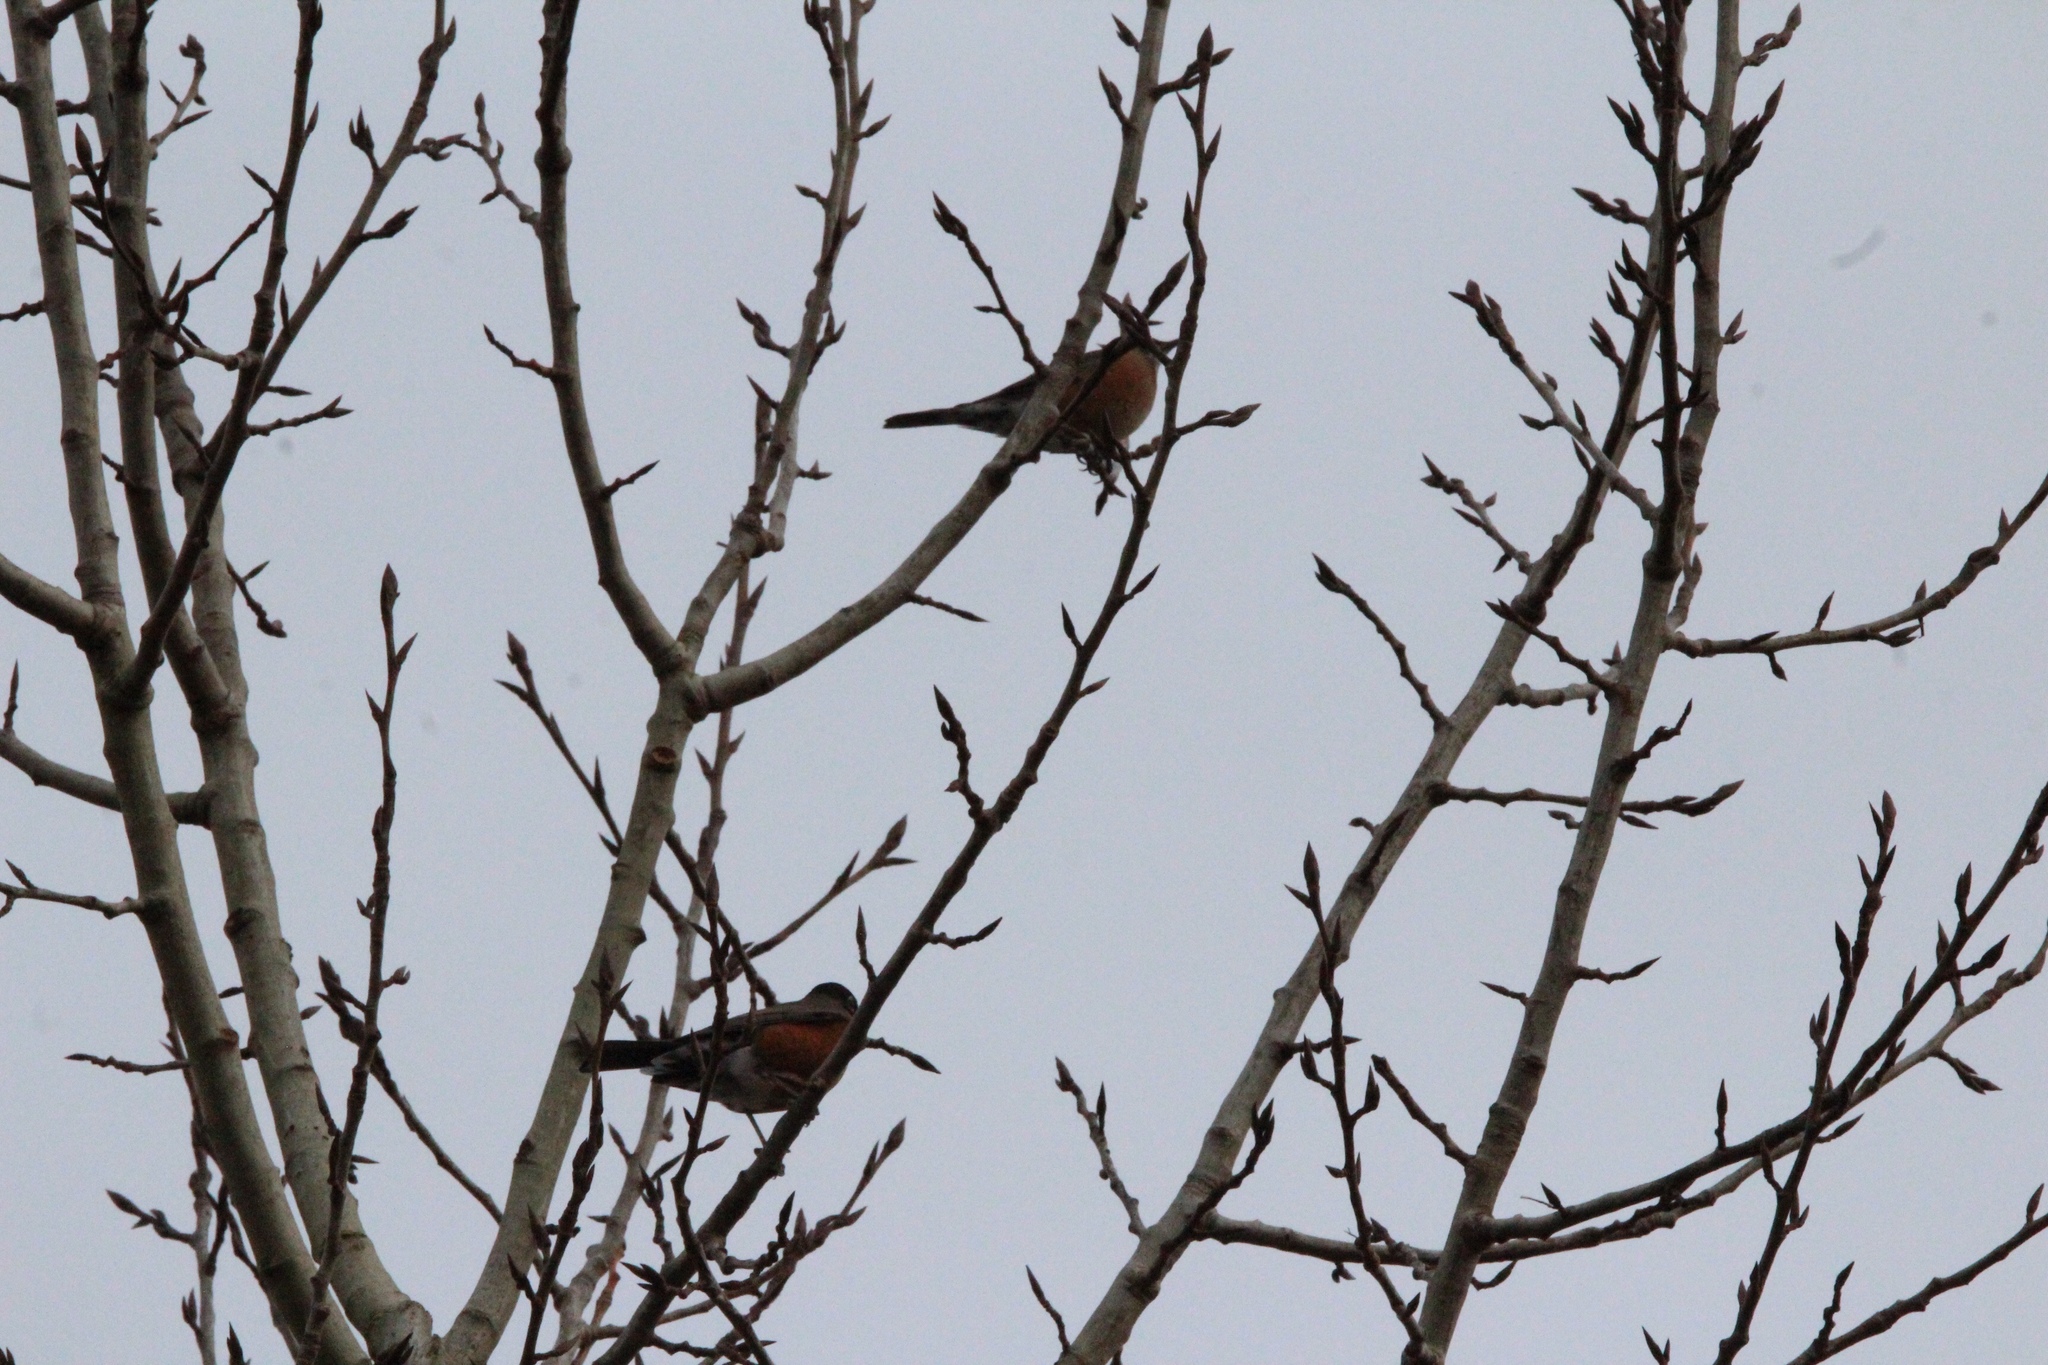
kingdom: Animalia
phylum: Chordata
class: Aves
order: Passeriformes
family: Turdidae
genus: Turdus
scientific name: Turdus migratorius
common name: American robin
